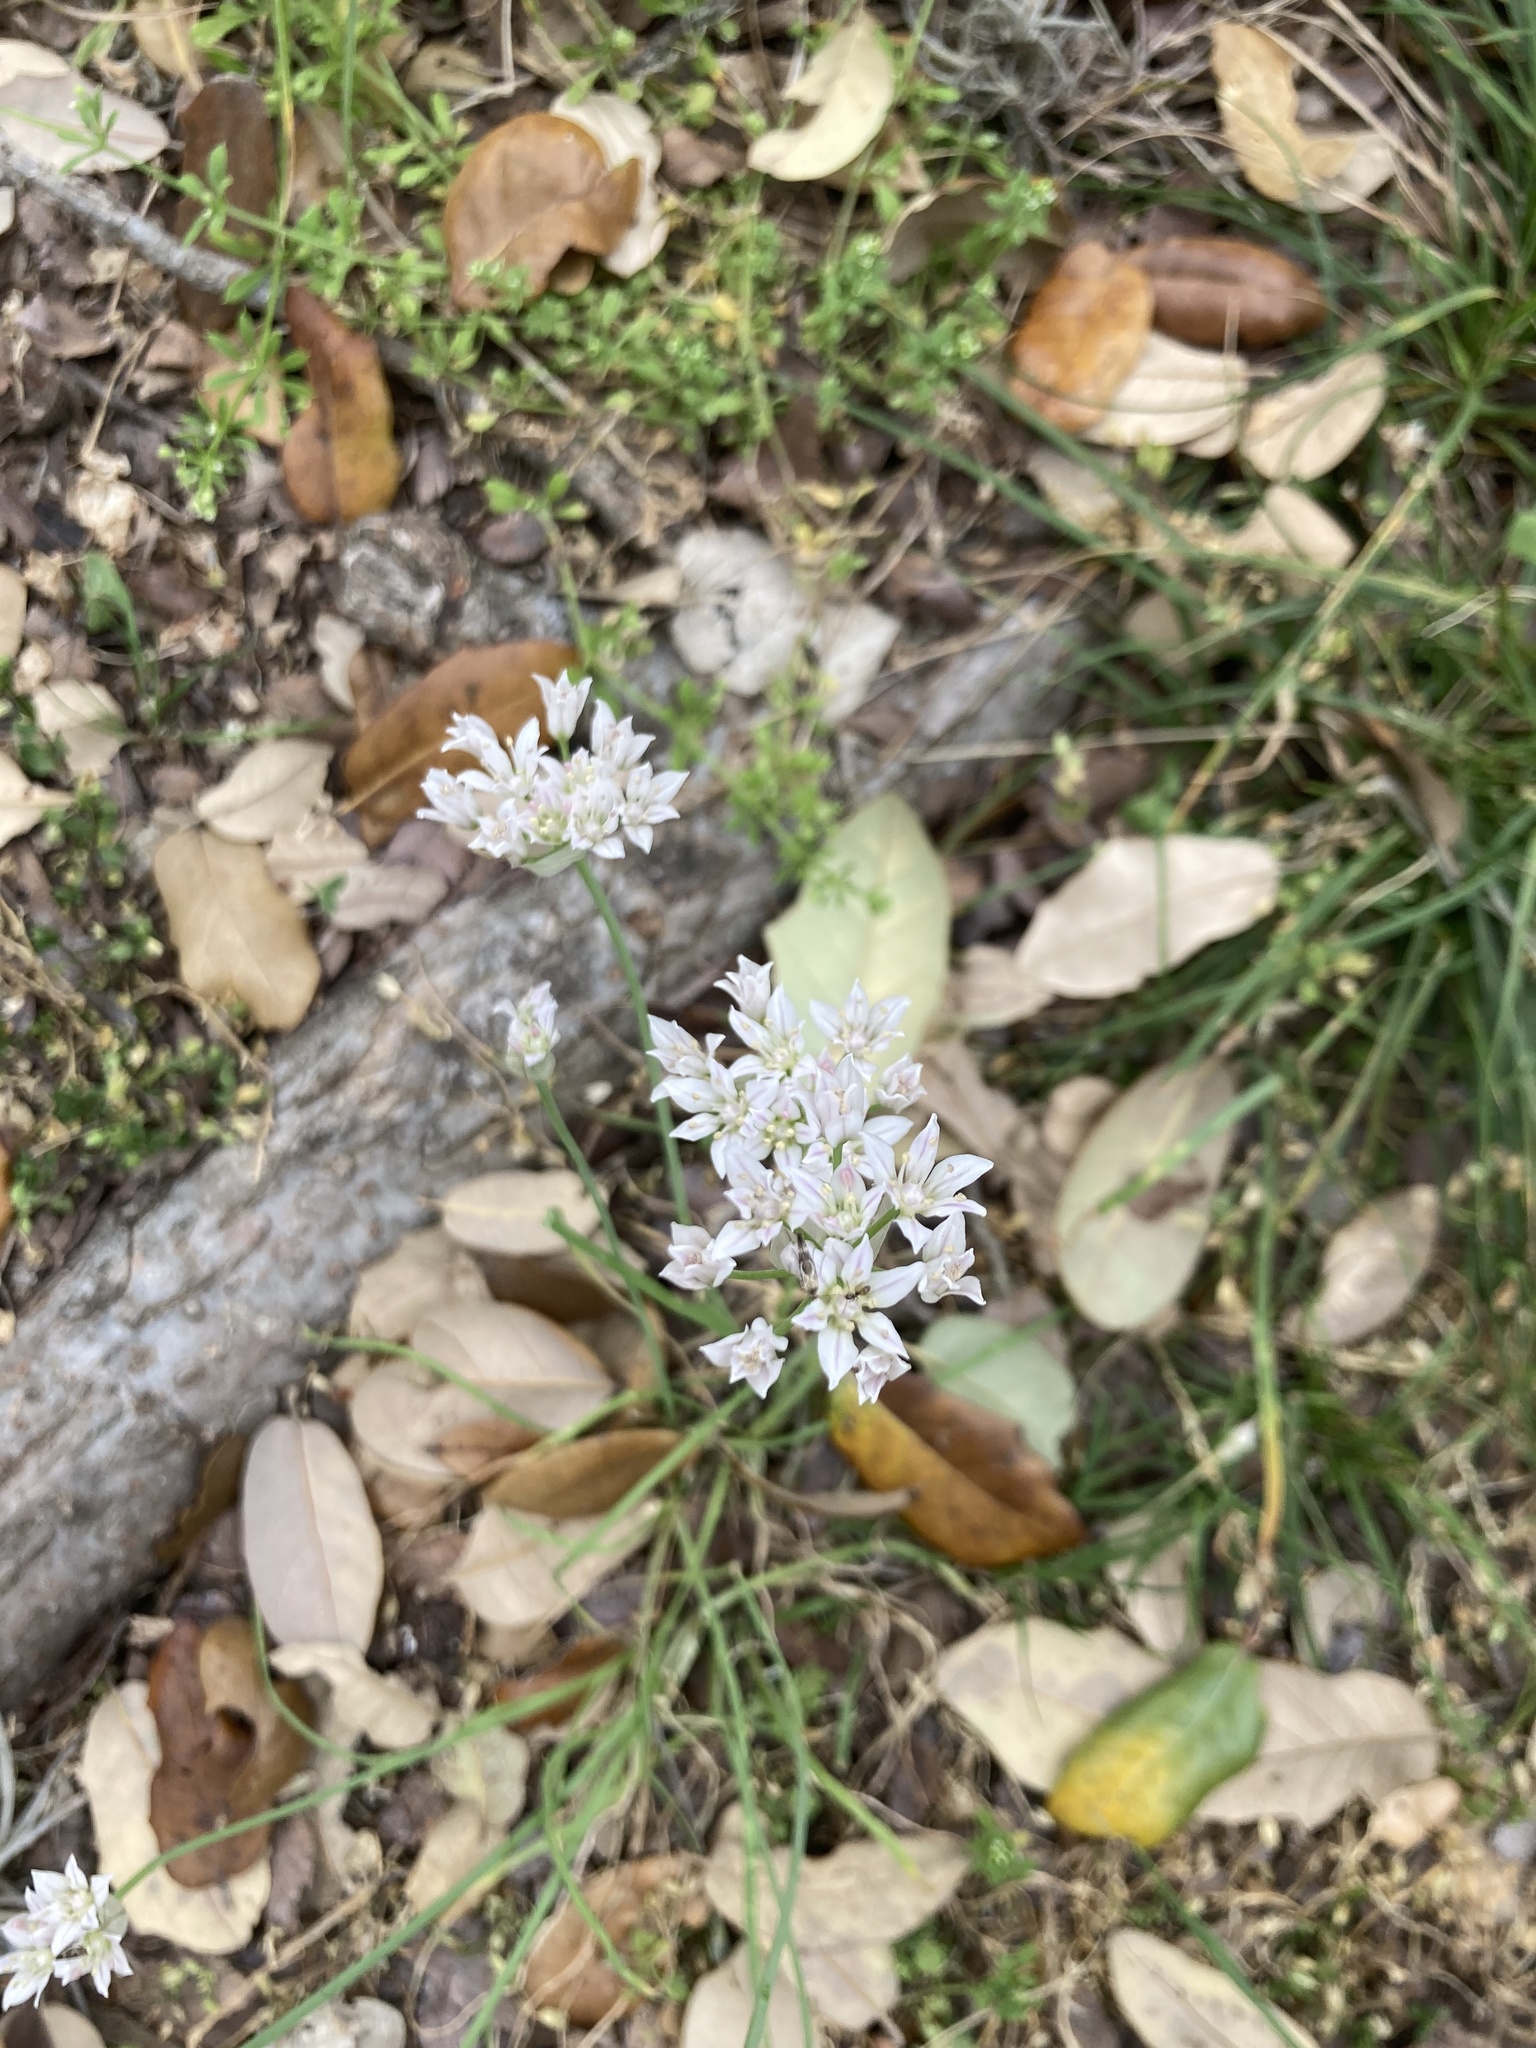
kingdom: Plantae
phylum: Tracheophyta
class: Liliopsida
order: Asparagales
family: Amaryllidaceae
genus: Allium
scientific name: Allium drummondii
